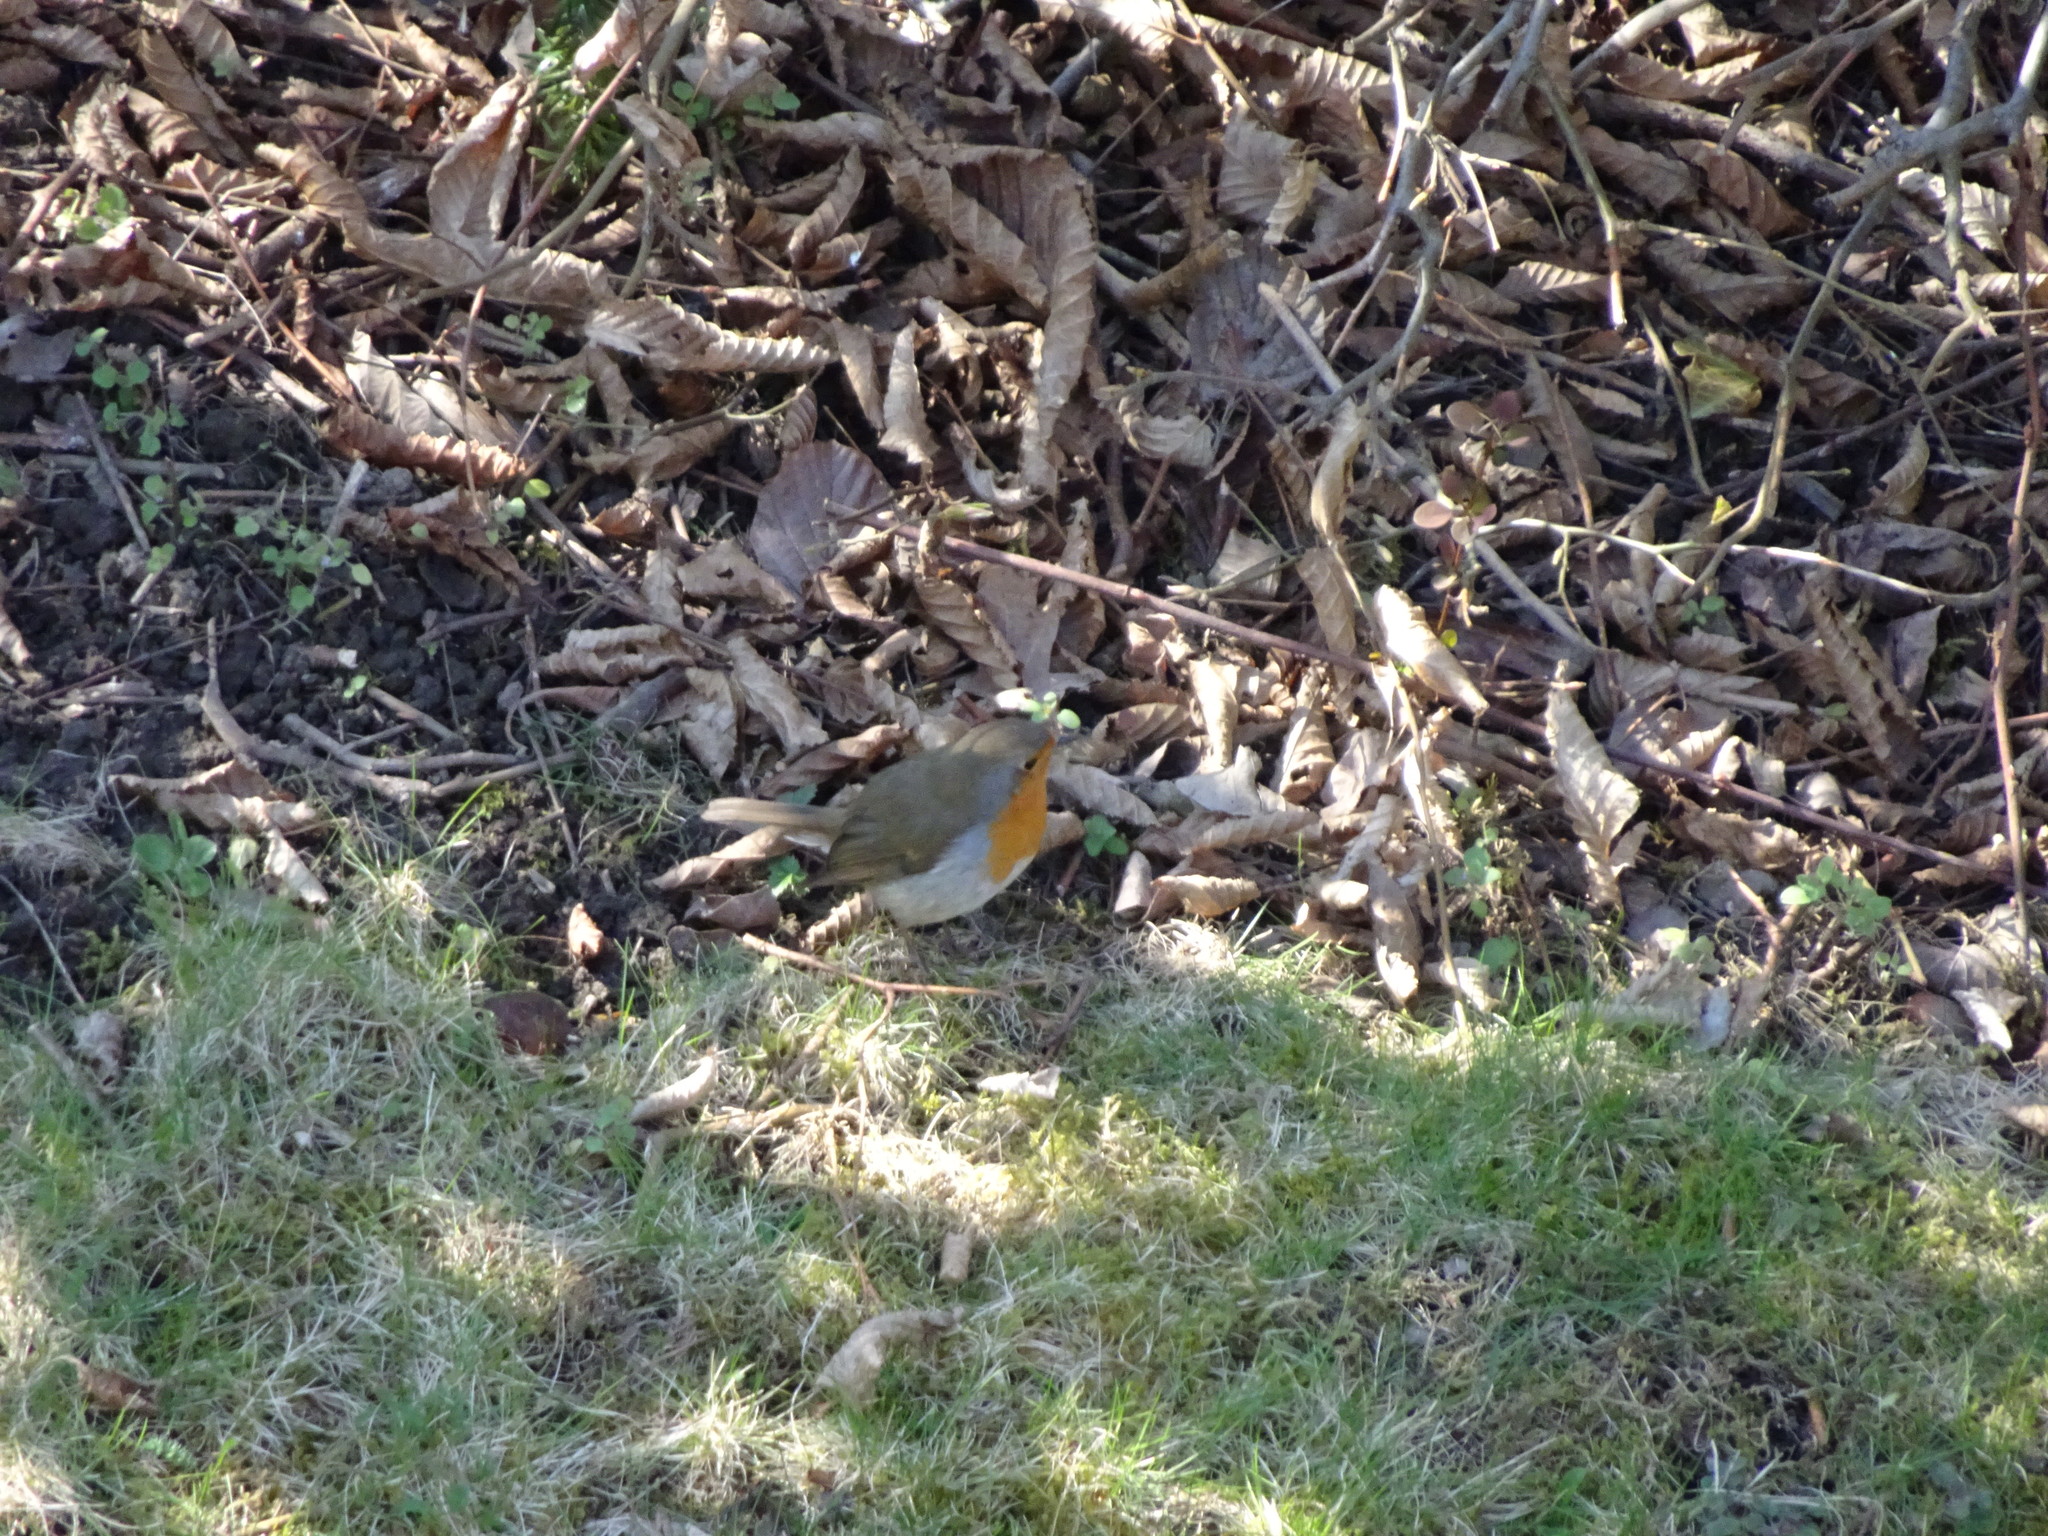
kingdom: Animalia
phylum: Chordata
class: Aves
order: Passeriformes
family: Muscicapidae
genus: Erithacus
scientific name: Erithacus rubecula
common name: European robin
